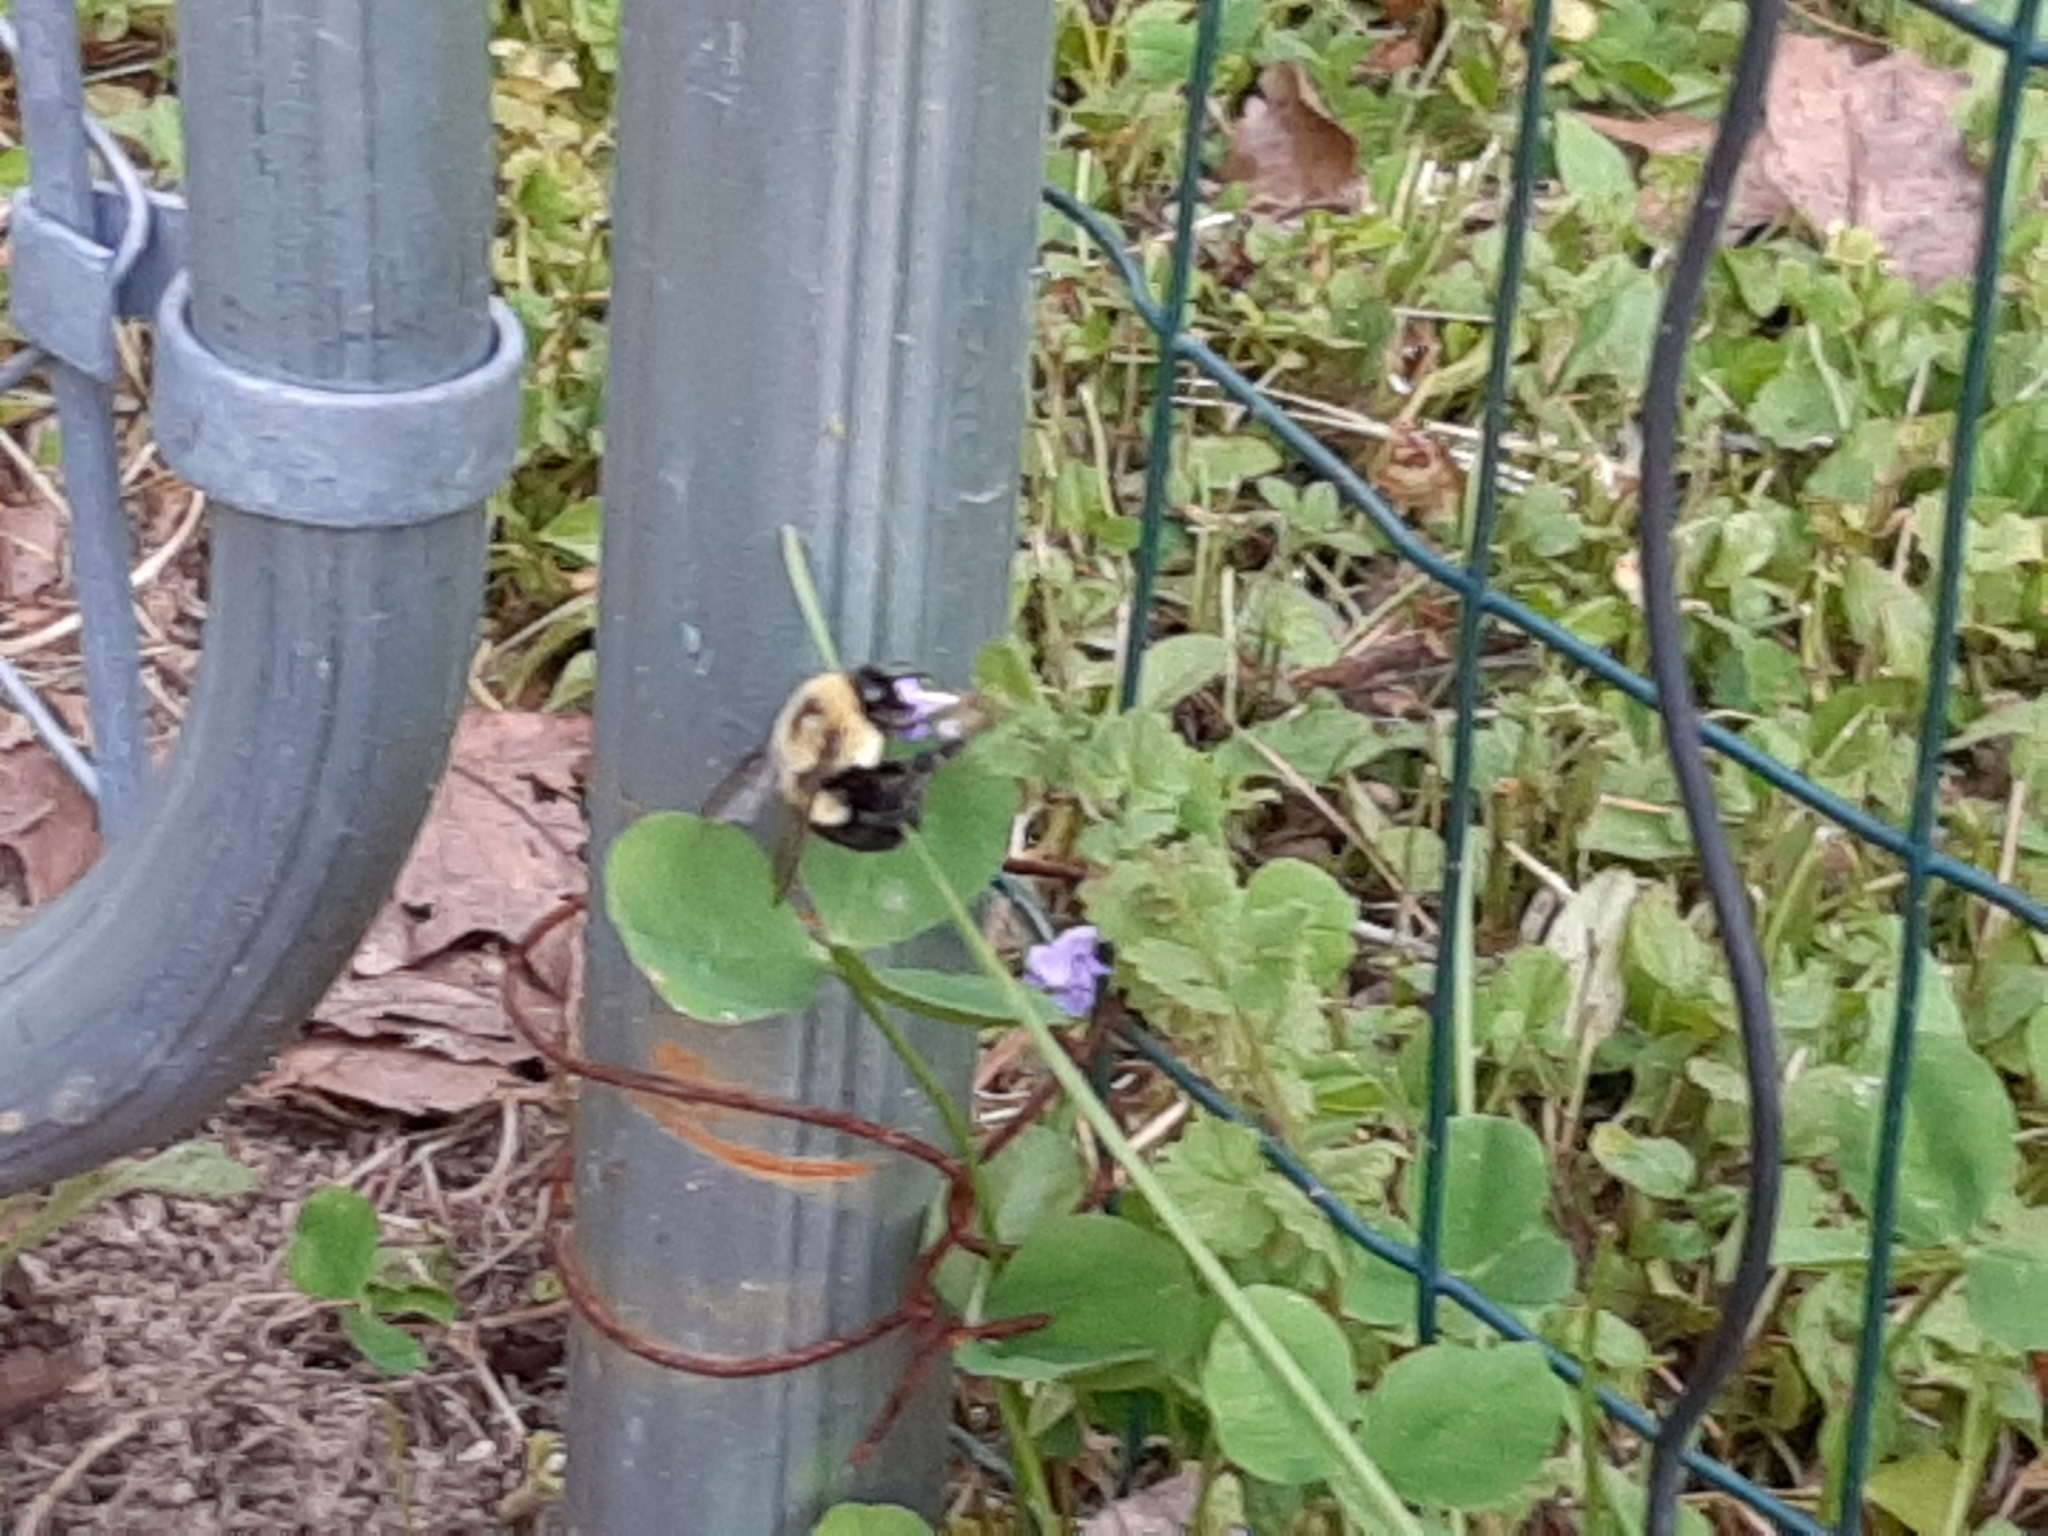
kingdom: Animalia
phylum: Arthropoda
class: Insecta
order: Hymenoptera
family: Apidae
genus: Bombus
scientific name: Bombus impatiens
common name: Common eastern bumble bee
